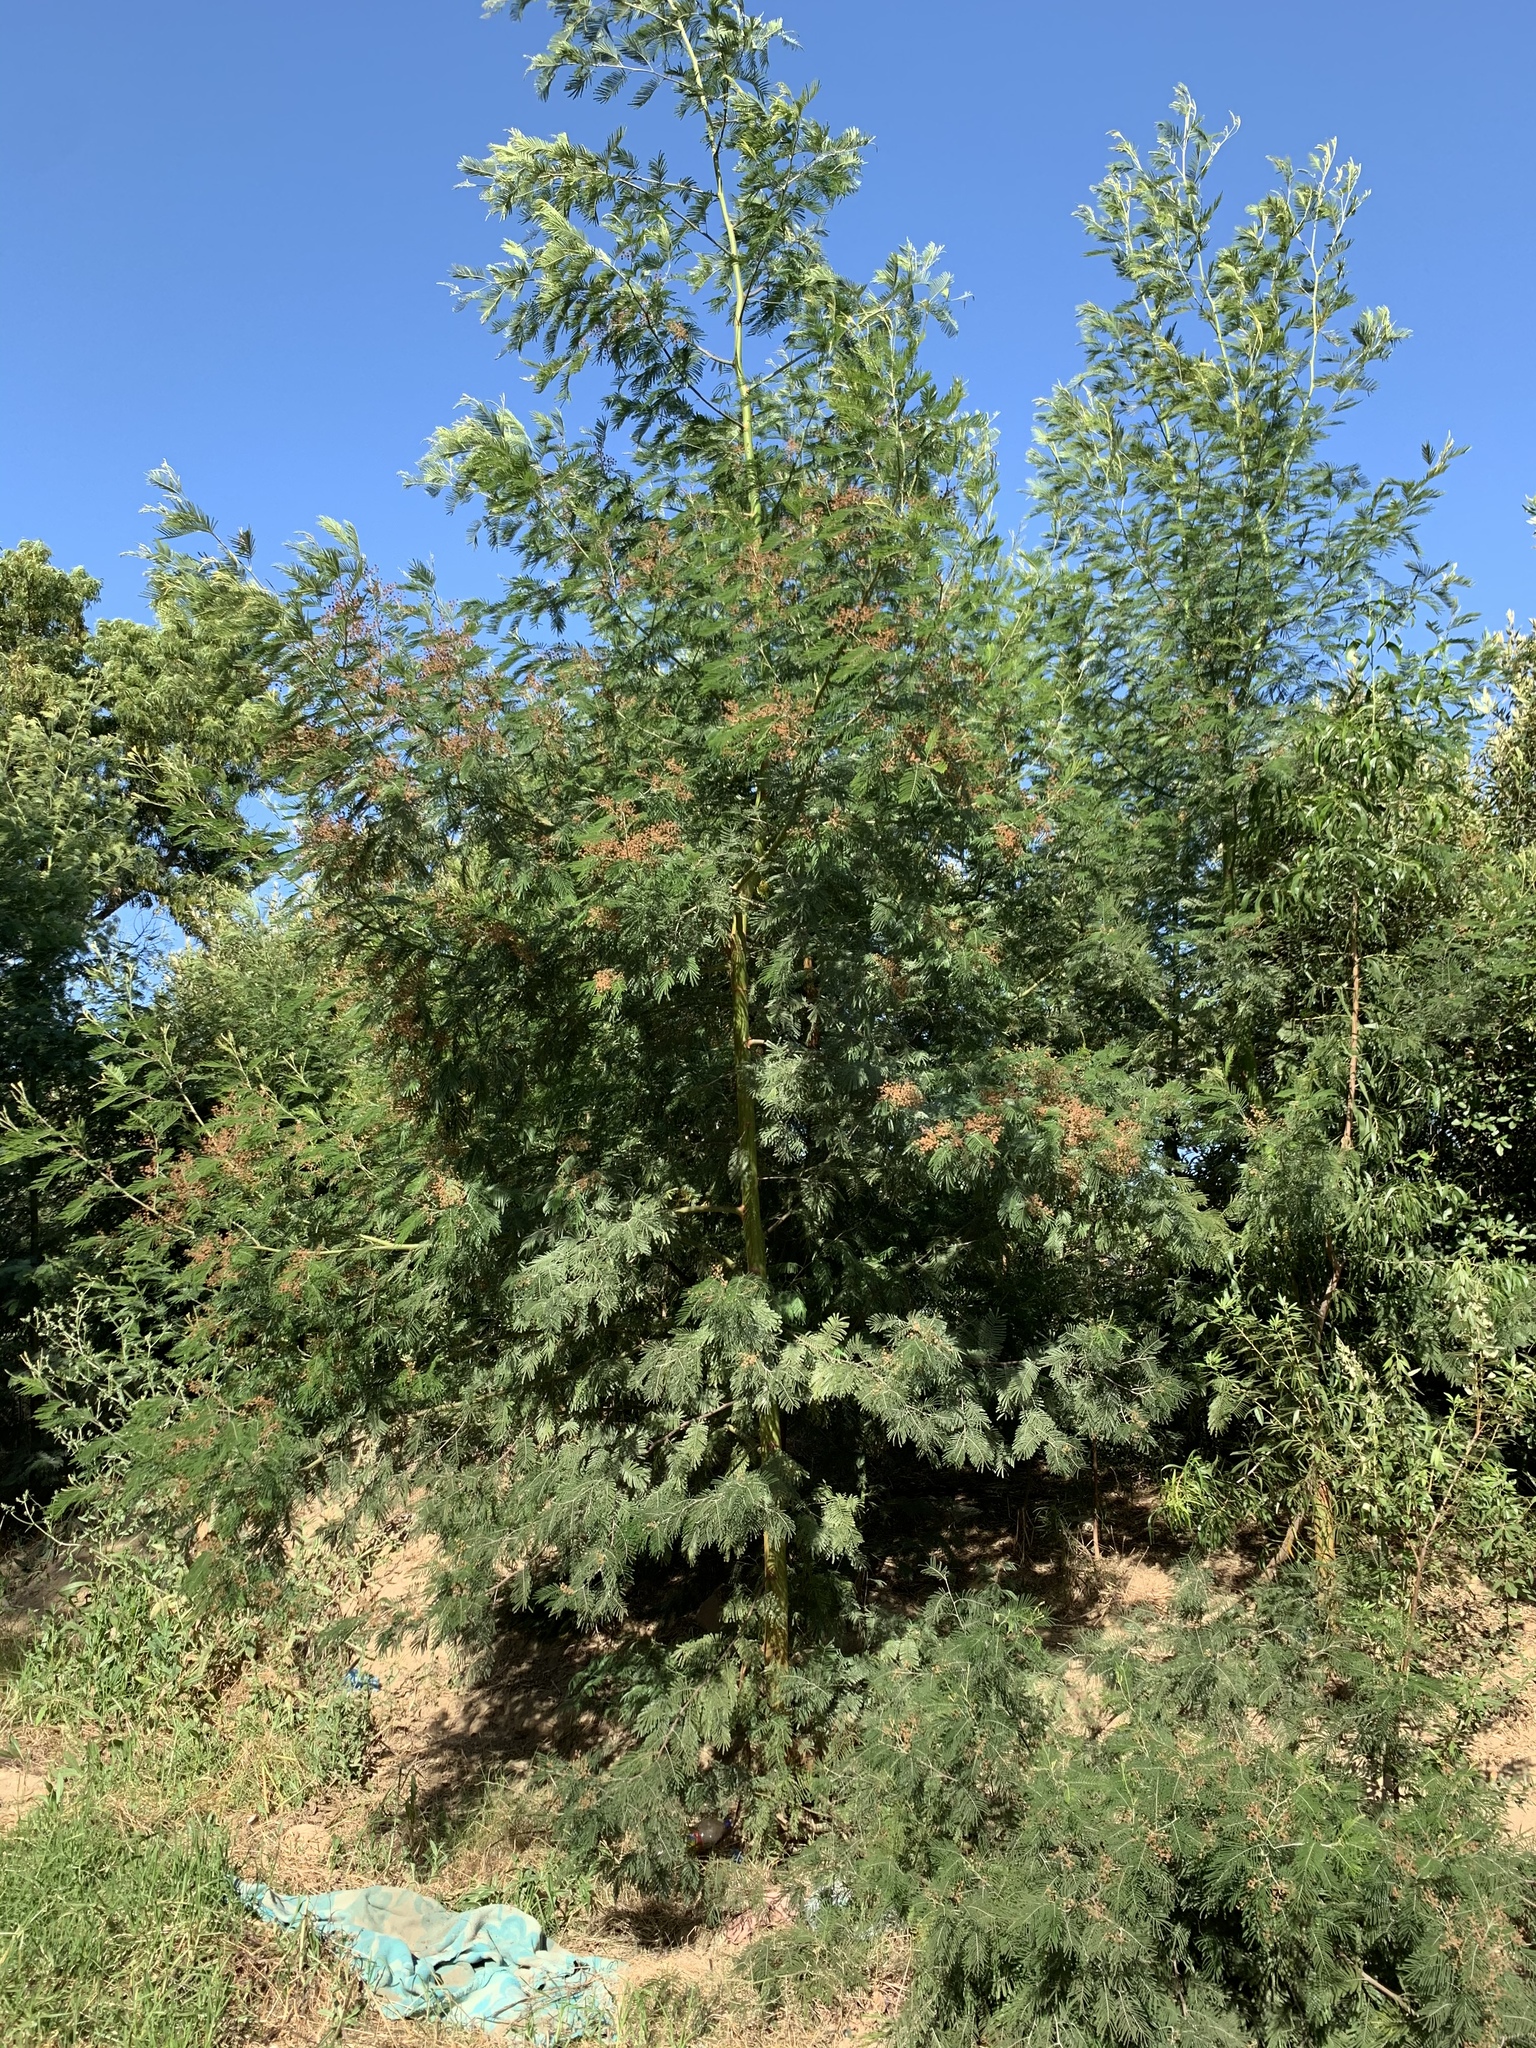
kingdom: Plantae
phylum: Tracheophyta
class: Magnoliopsida
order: Fabales
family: Fabaceae
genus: Acacia
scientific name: Acacia mearnsii
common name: Black wattle
